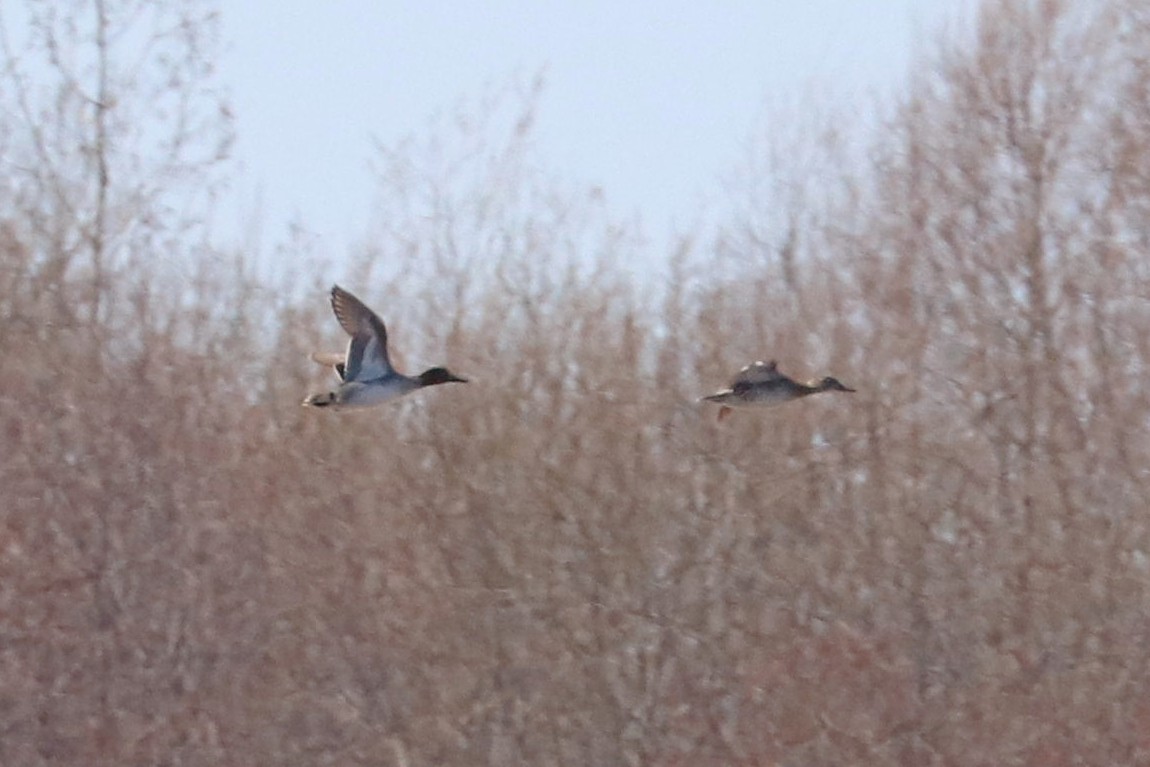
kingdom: Animalia
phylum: Chordata
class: Aves
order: Anseriformes
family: Anatidae
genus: Anas
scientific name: Anas crecca
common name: Eurasian teal
